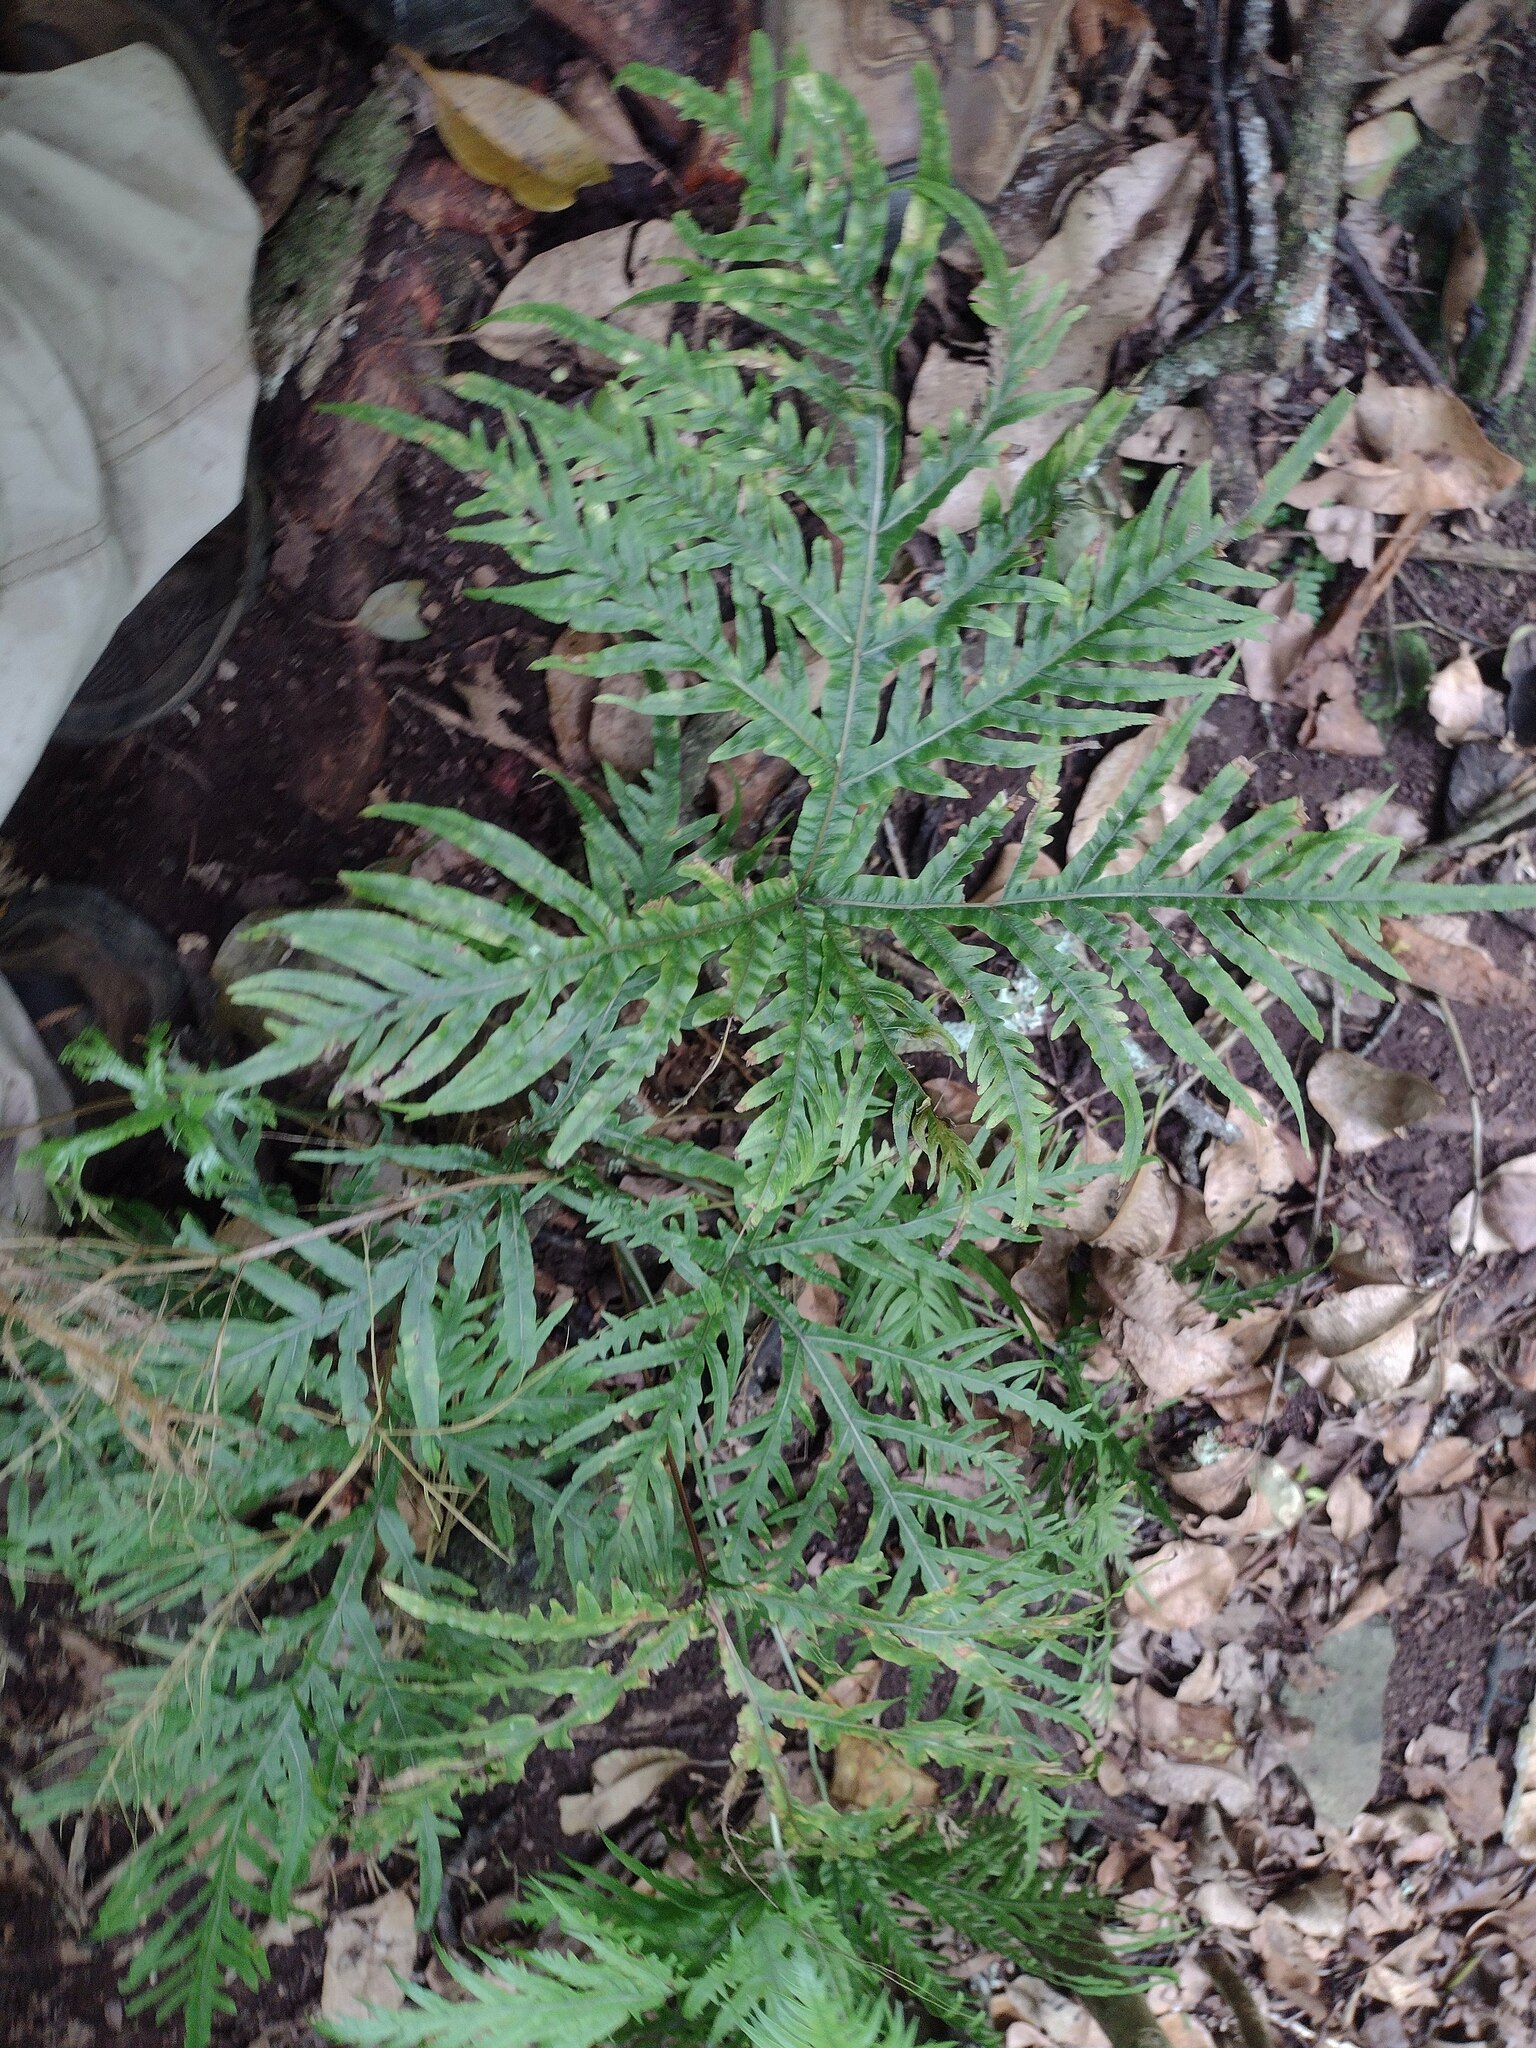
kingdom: Plantae
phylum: Tracheophyta
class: Polypodiopsida
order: Polypodiales
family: Pteridaceae
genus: Pteris
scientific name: Pteris irregularis
